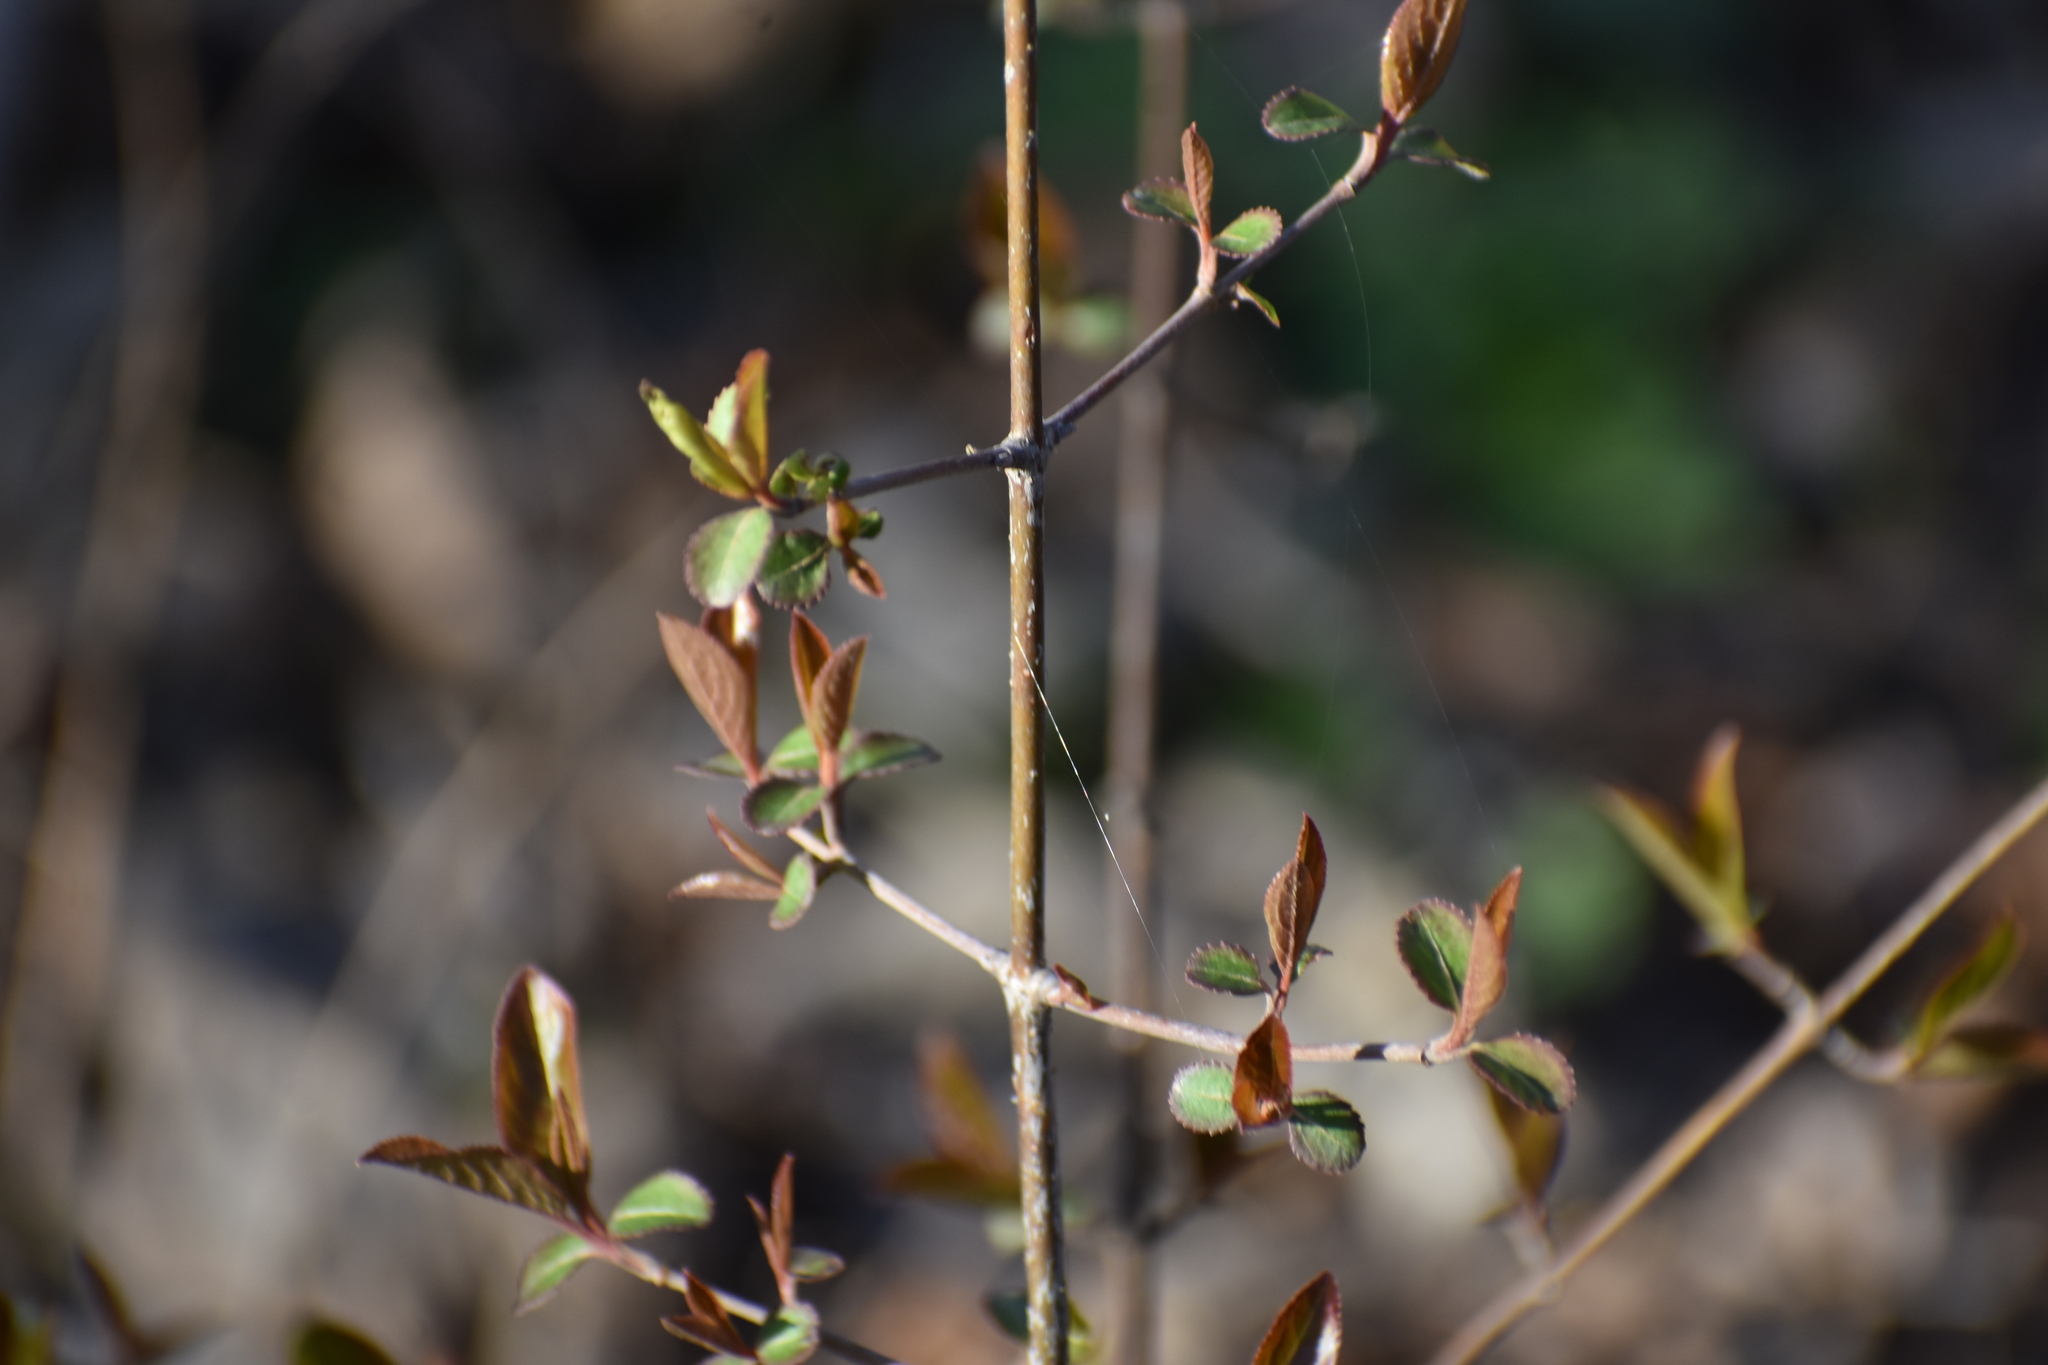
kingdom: Plantae
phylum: Tracheophyta
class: Magnoliopsida
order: Dipsacales
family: Viburnaceae
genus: Viburnum
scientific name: Viburnum prunifolium
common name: Black haw
